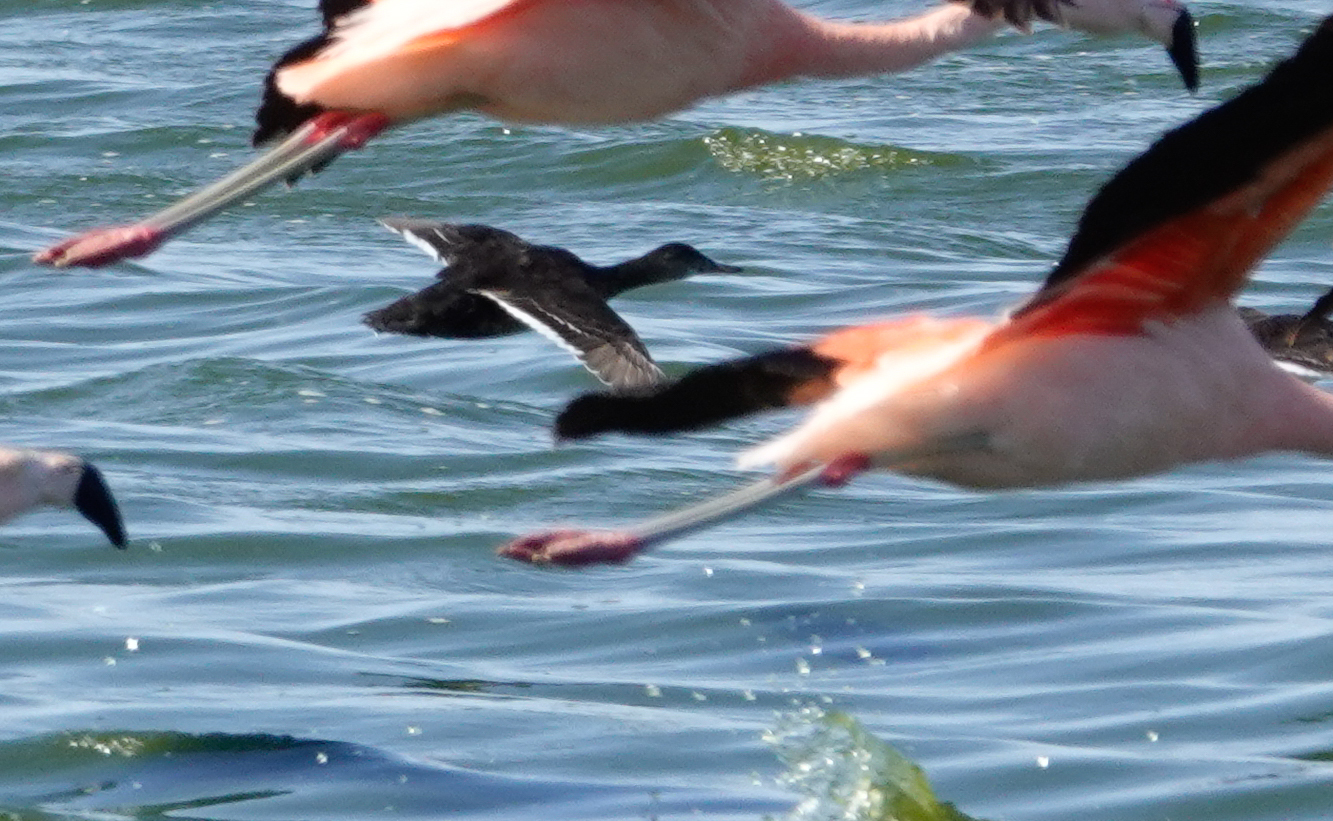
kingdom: Animalia
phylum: Chordata
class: Aves
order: Anseriformes
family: Anatidae
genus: Heteronetta
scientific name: Heteronetta atricapilla
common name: Black-headed duck
